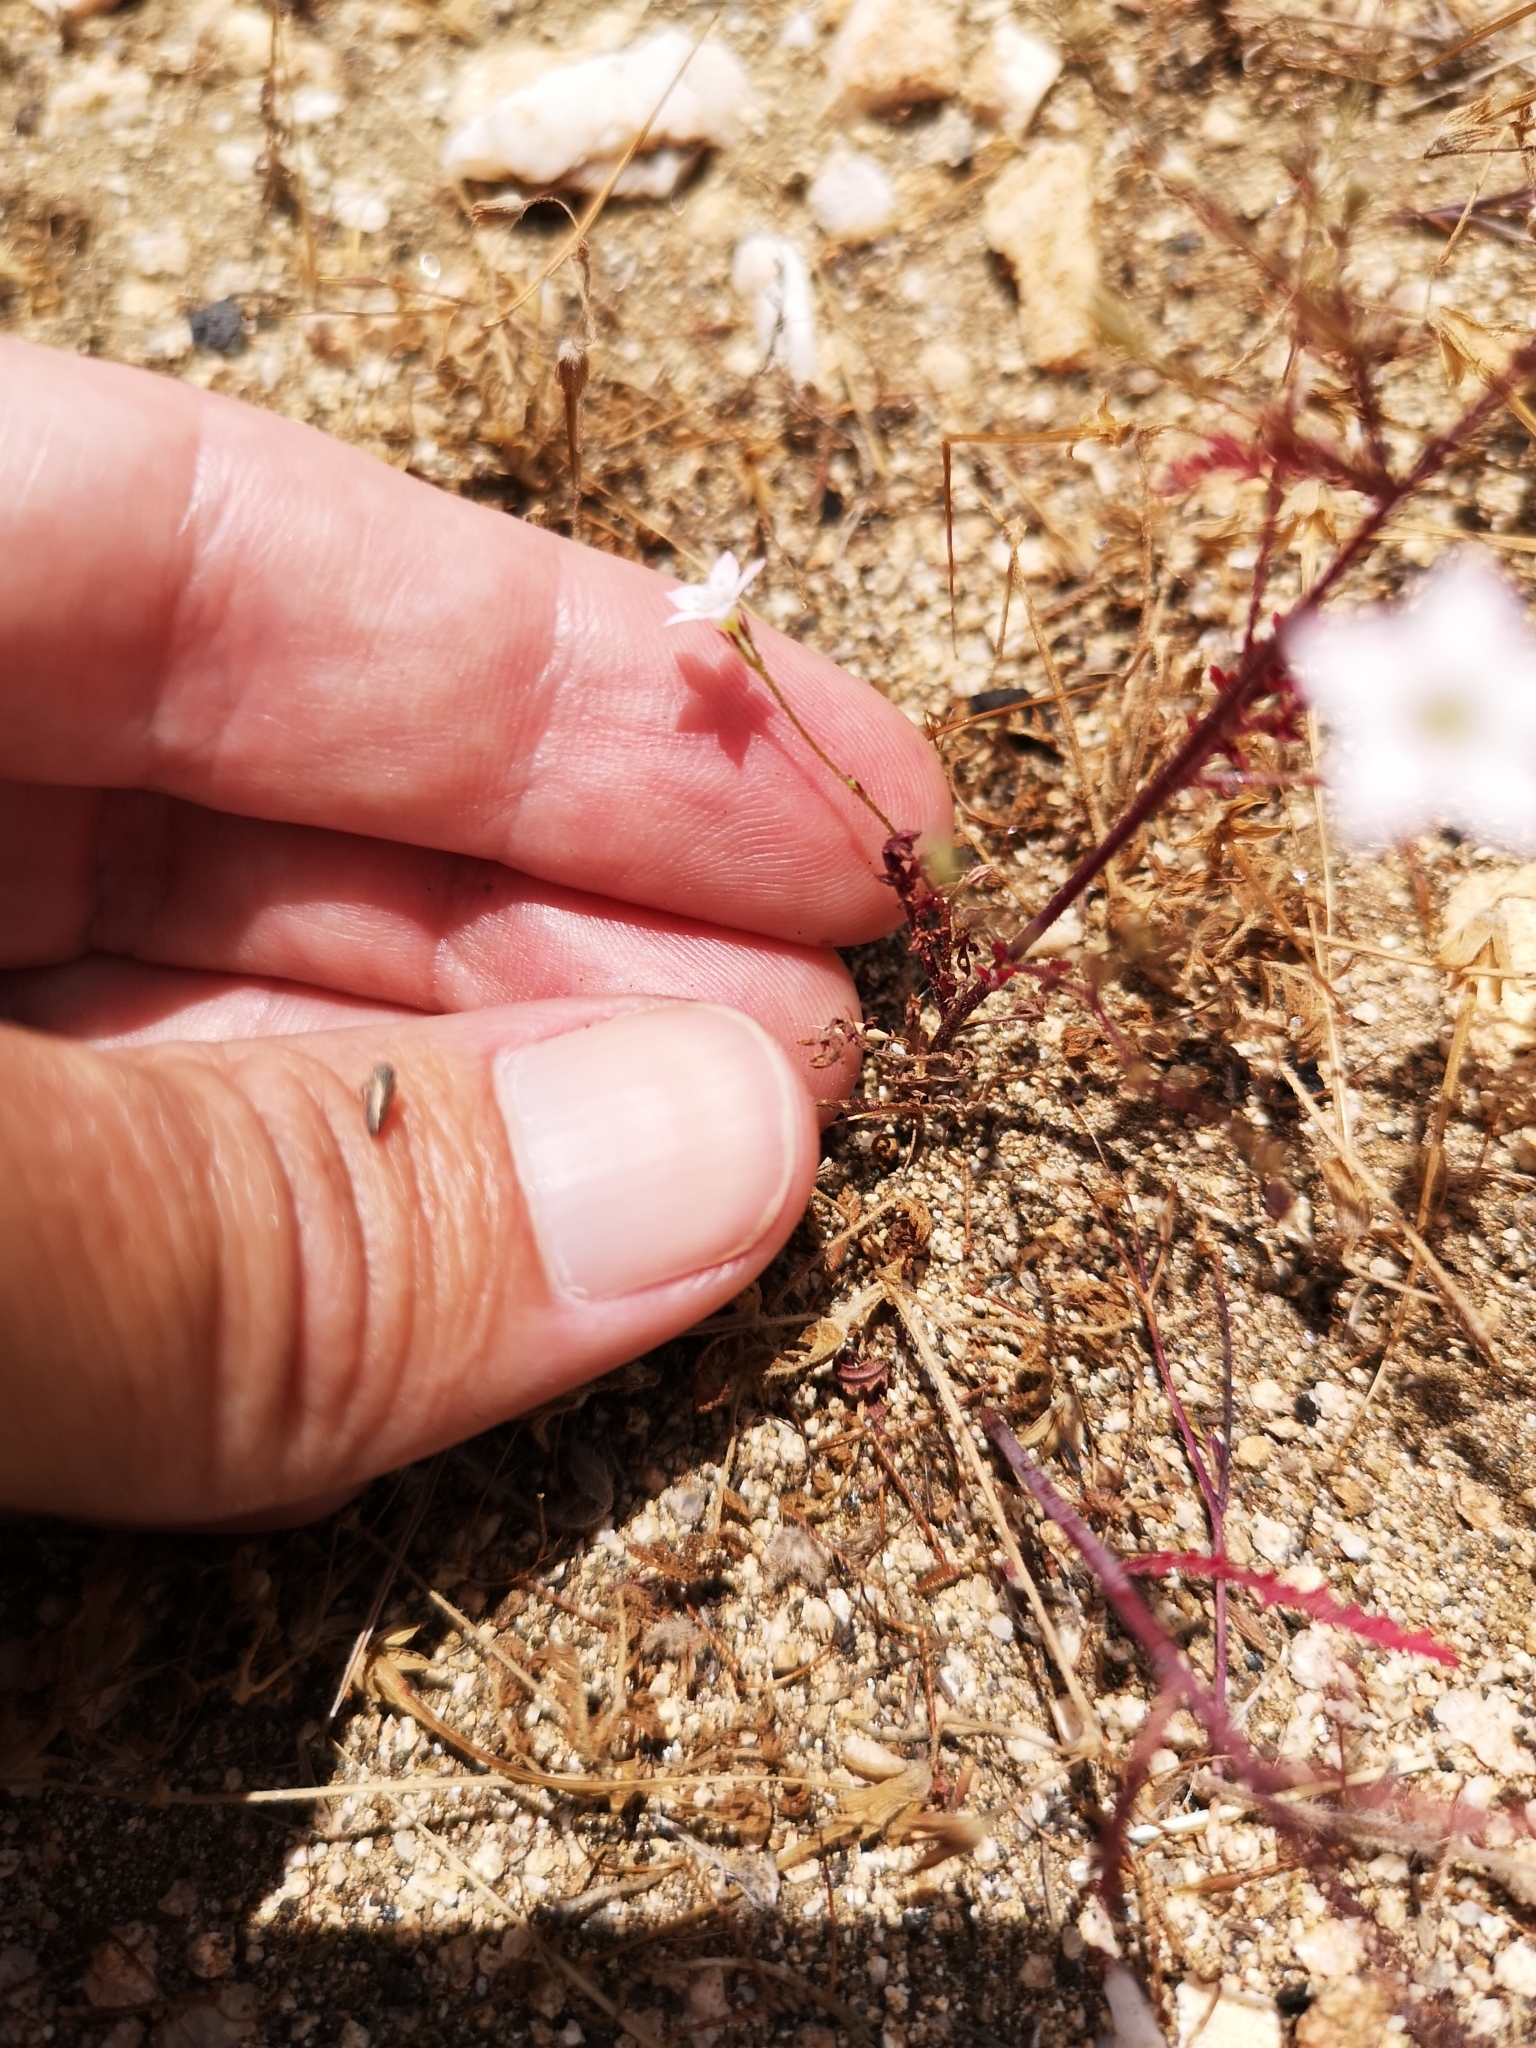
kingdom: Plantae
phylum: Tracheophyta
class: Magnoliopsida
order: Ericales
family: Polemoniaceae
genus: Saltugilia
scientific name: Saltugilia australis
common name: Southern gilia
